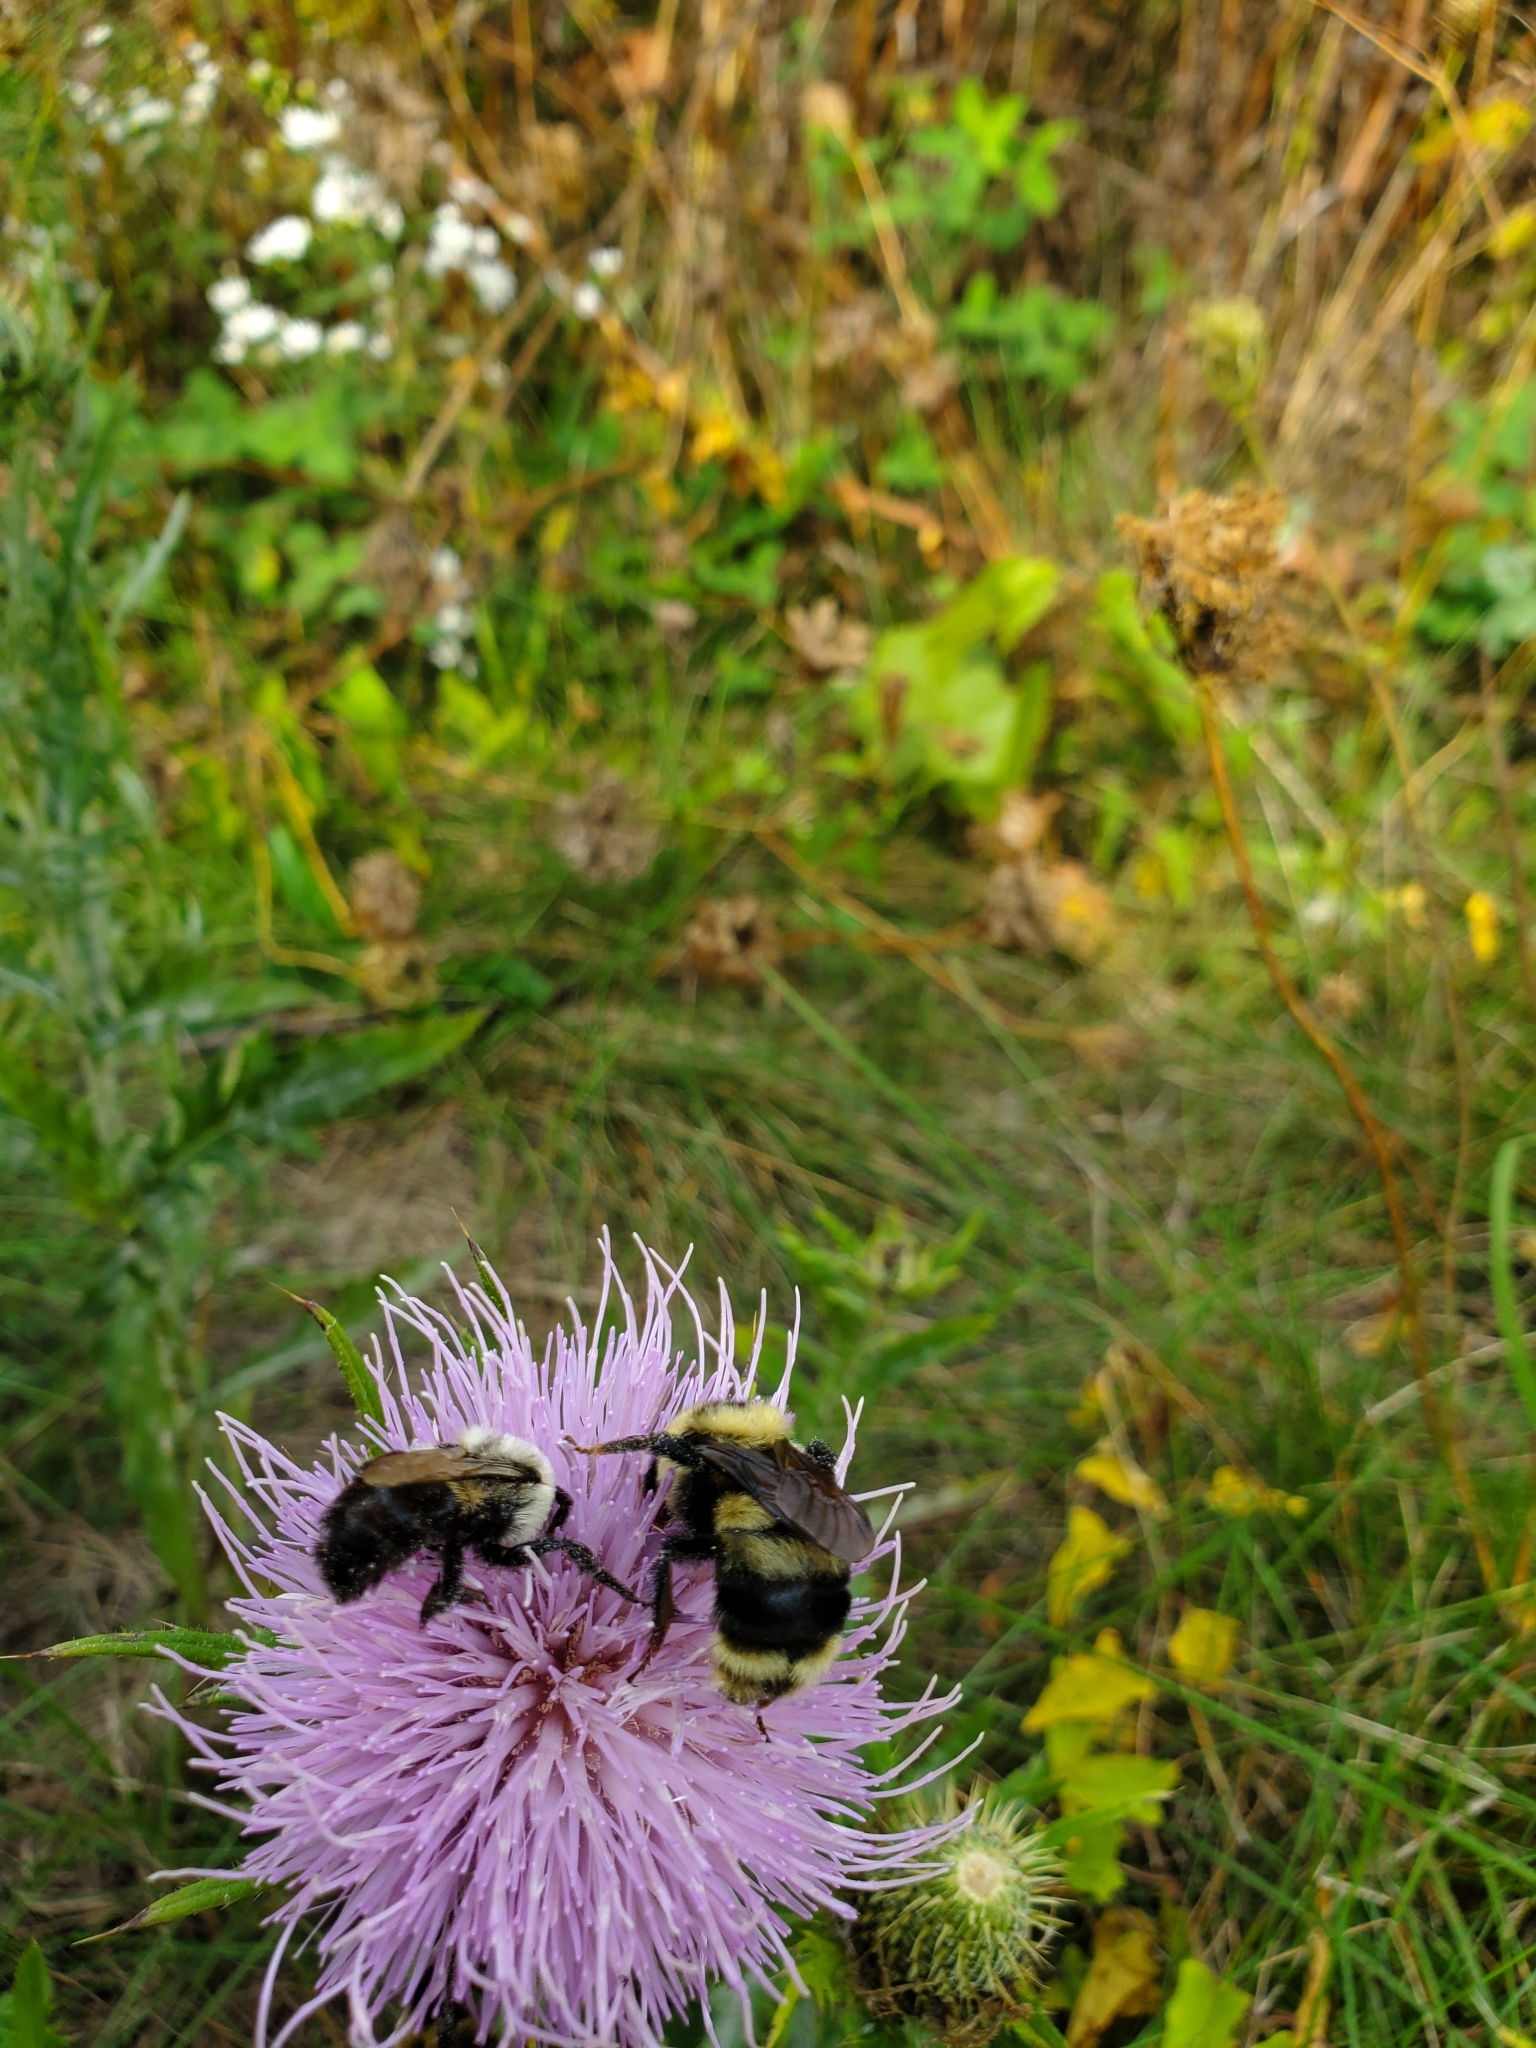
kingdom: Animalia
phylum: Arthropoda
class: Insecta
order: Hymenoptera
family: Apidae
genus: Bombus
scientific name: Bombus impatiens
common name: Common eastern bumble bee
